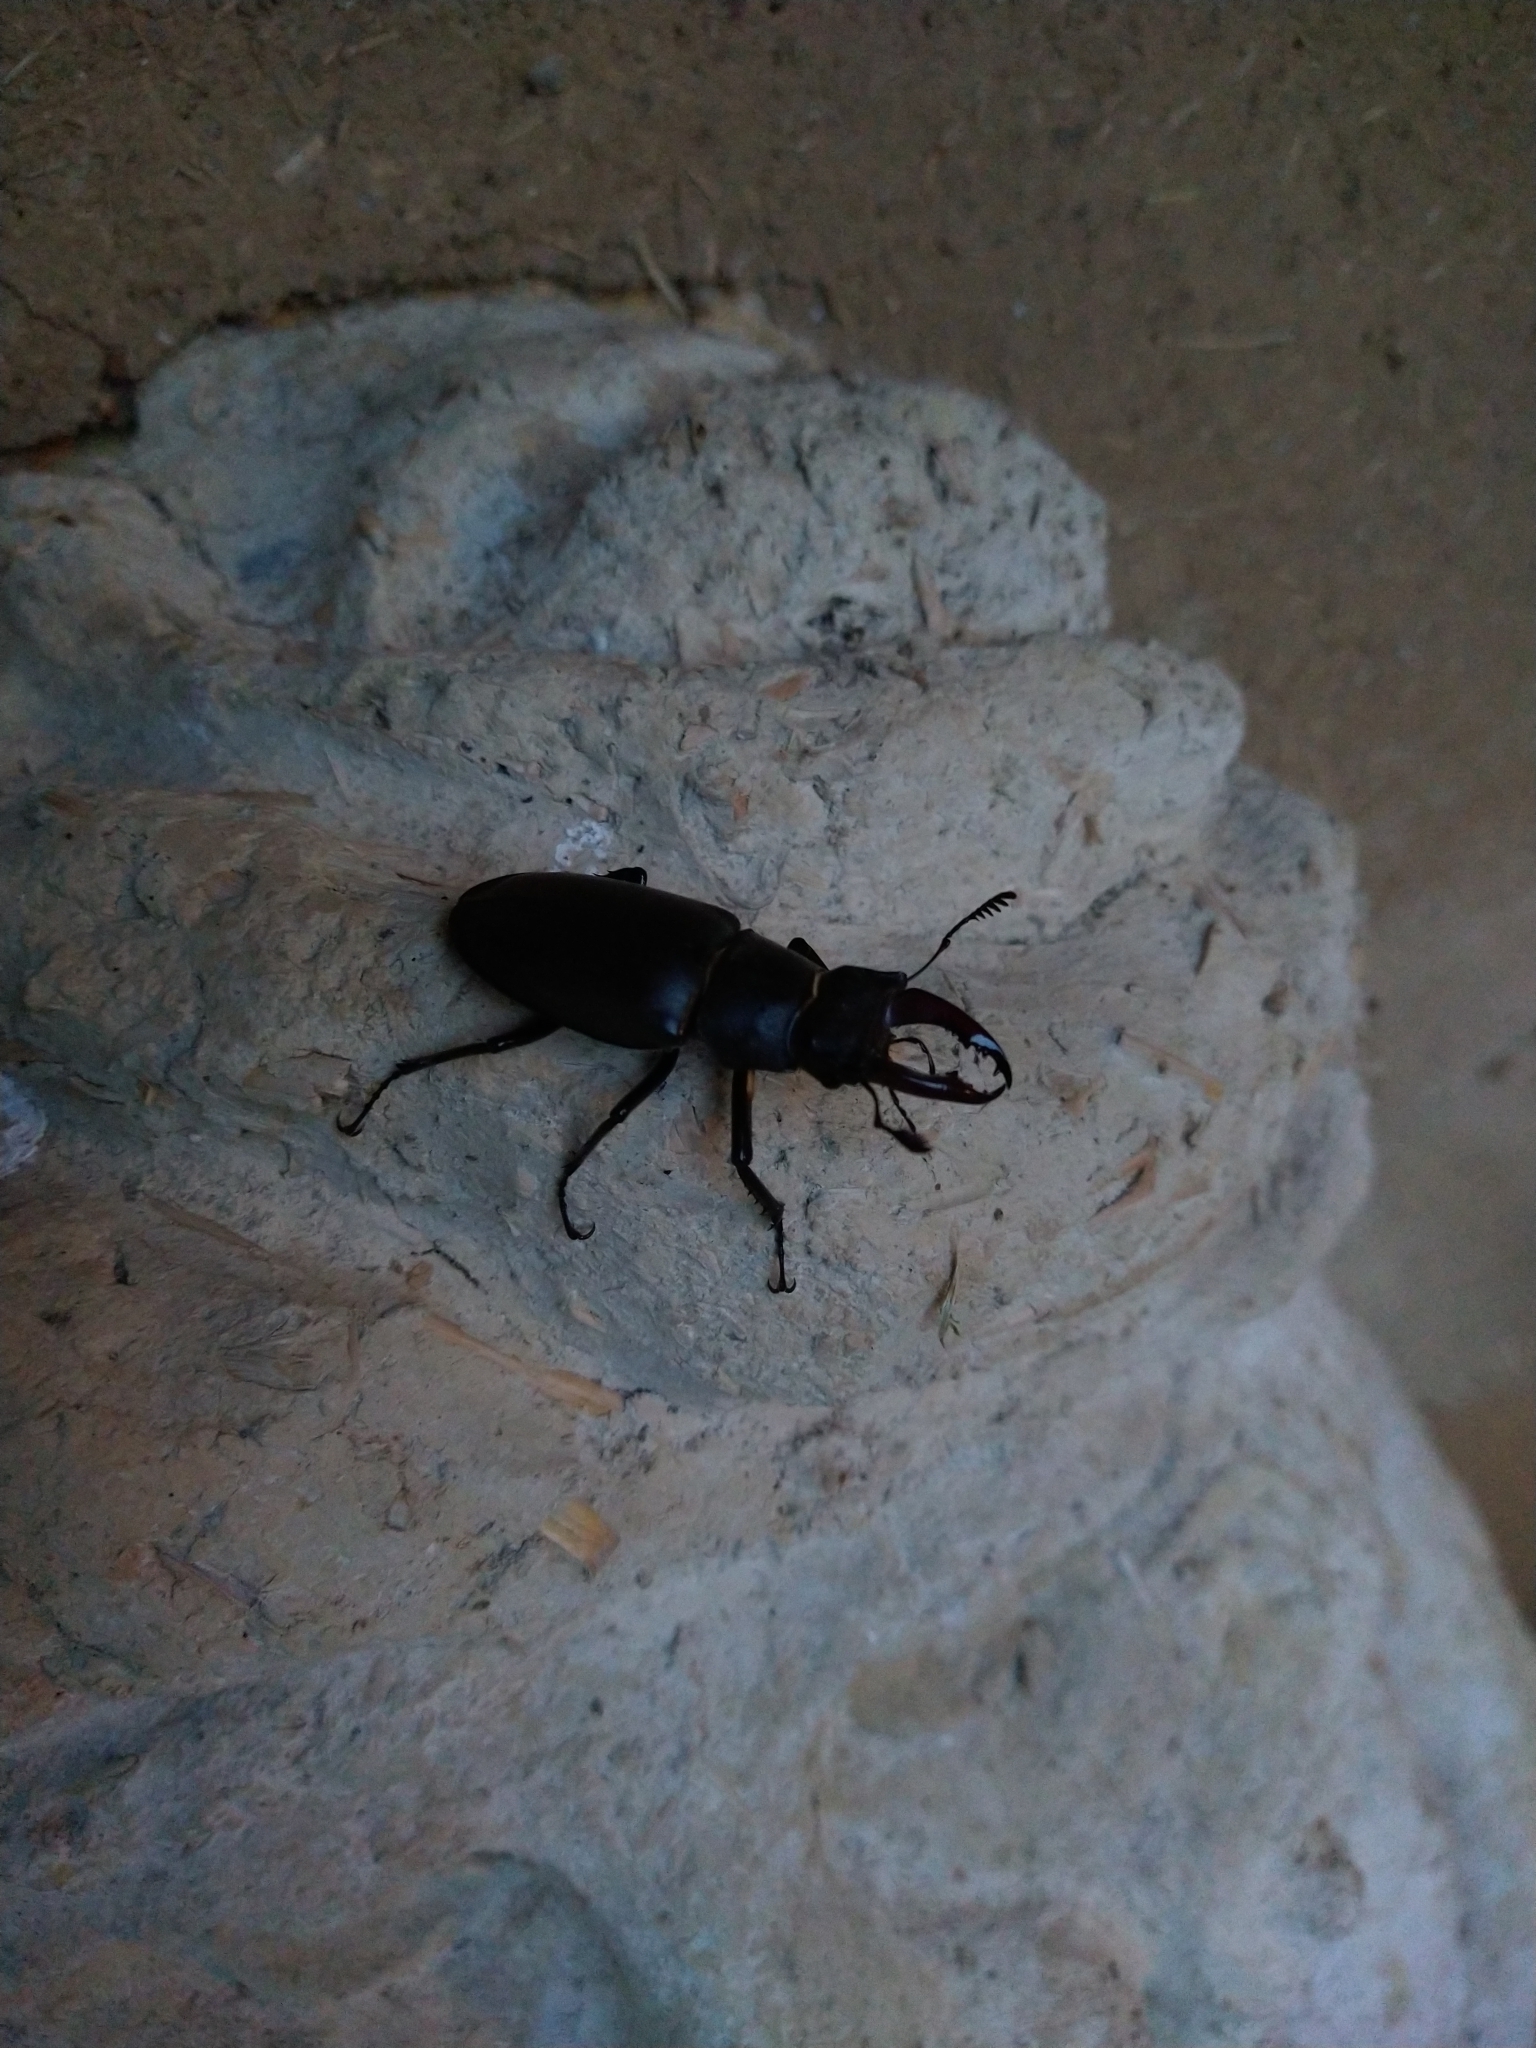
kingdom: Animalia
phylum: Arthropoda
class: Insecta
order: Coleoptera
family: Lucanidae
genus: Lucanus
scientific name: Lucanus cervus
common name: Stag beetle
